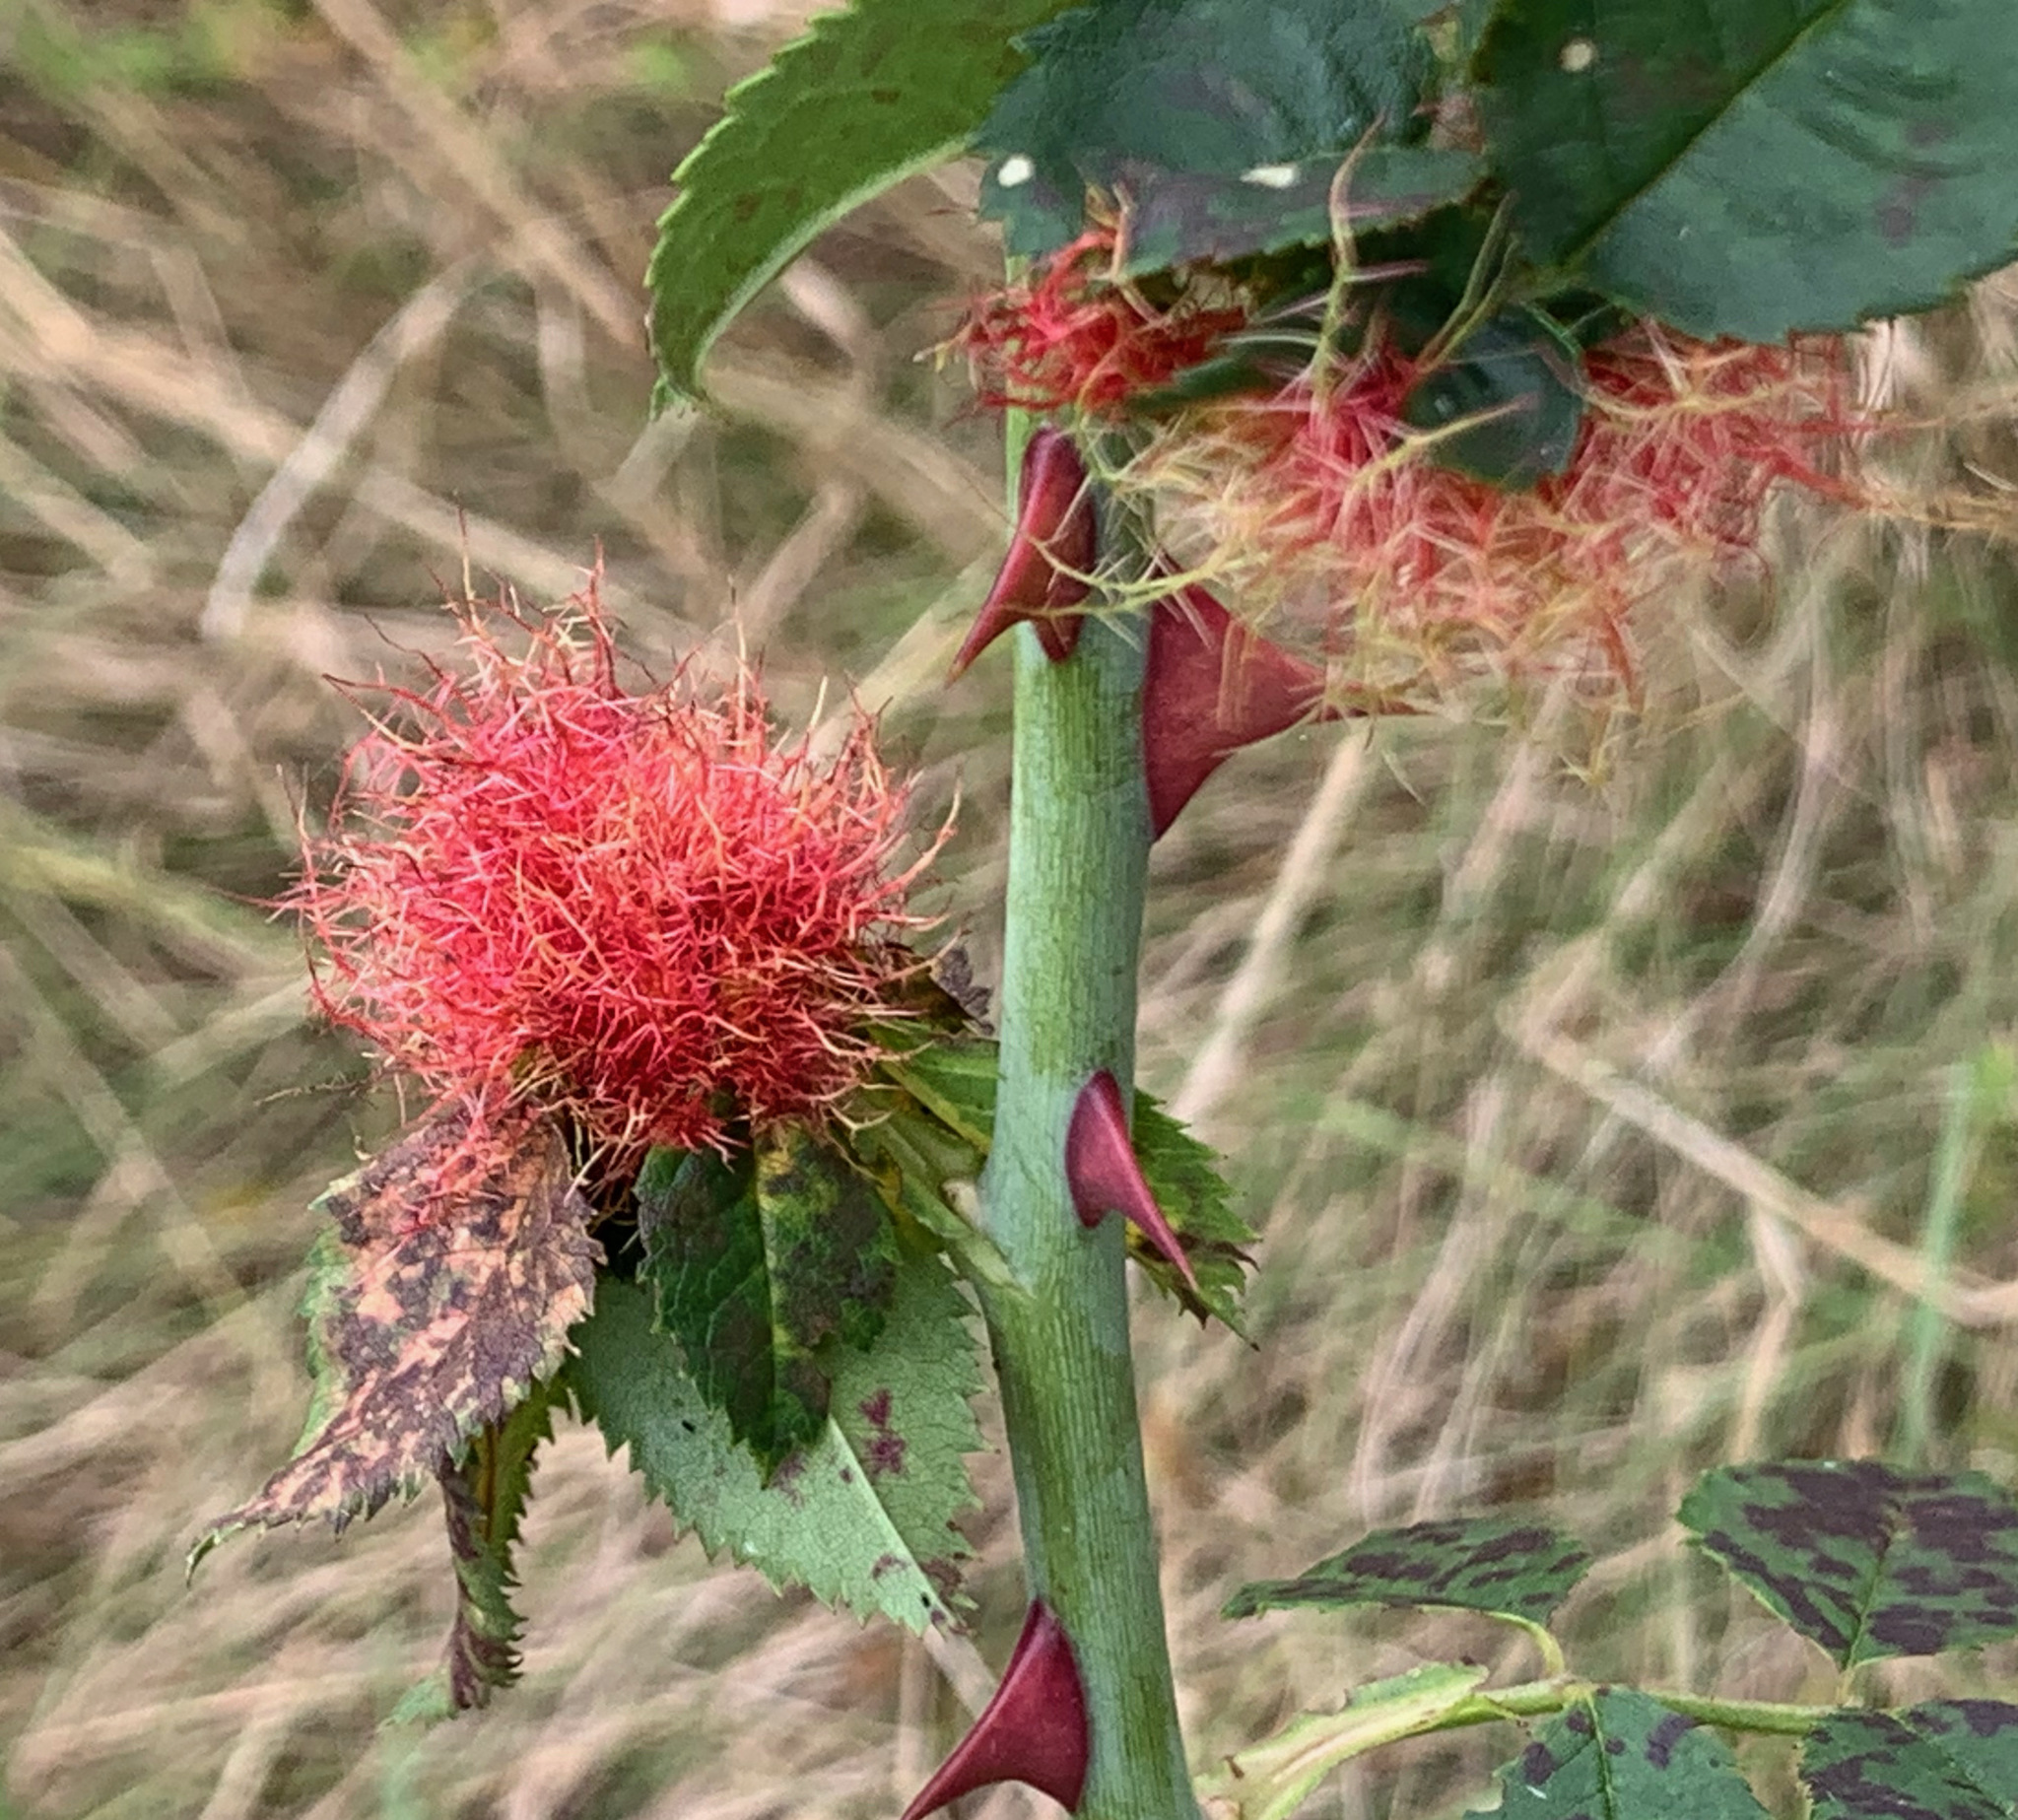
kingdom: Animalia
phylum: Arthropoda
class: Insecta
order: Hymenoptera
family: Cynipidae
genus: Diplolepis
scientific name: Diplolepis rosae
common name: Bedeguar gall
